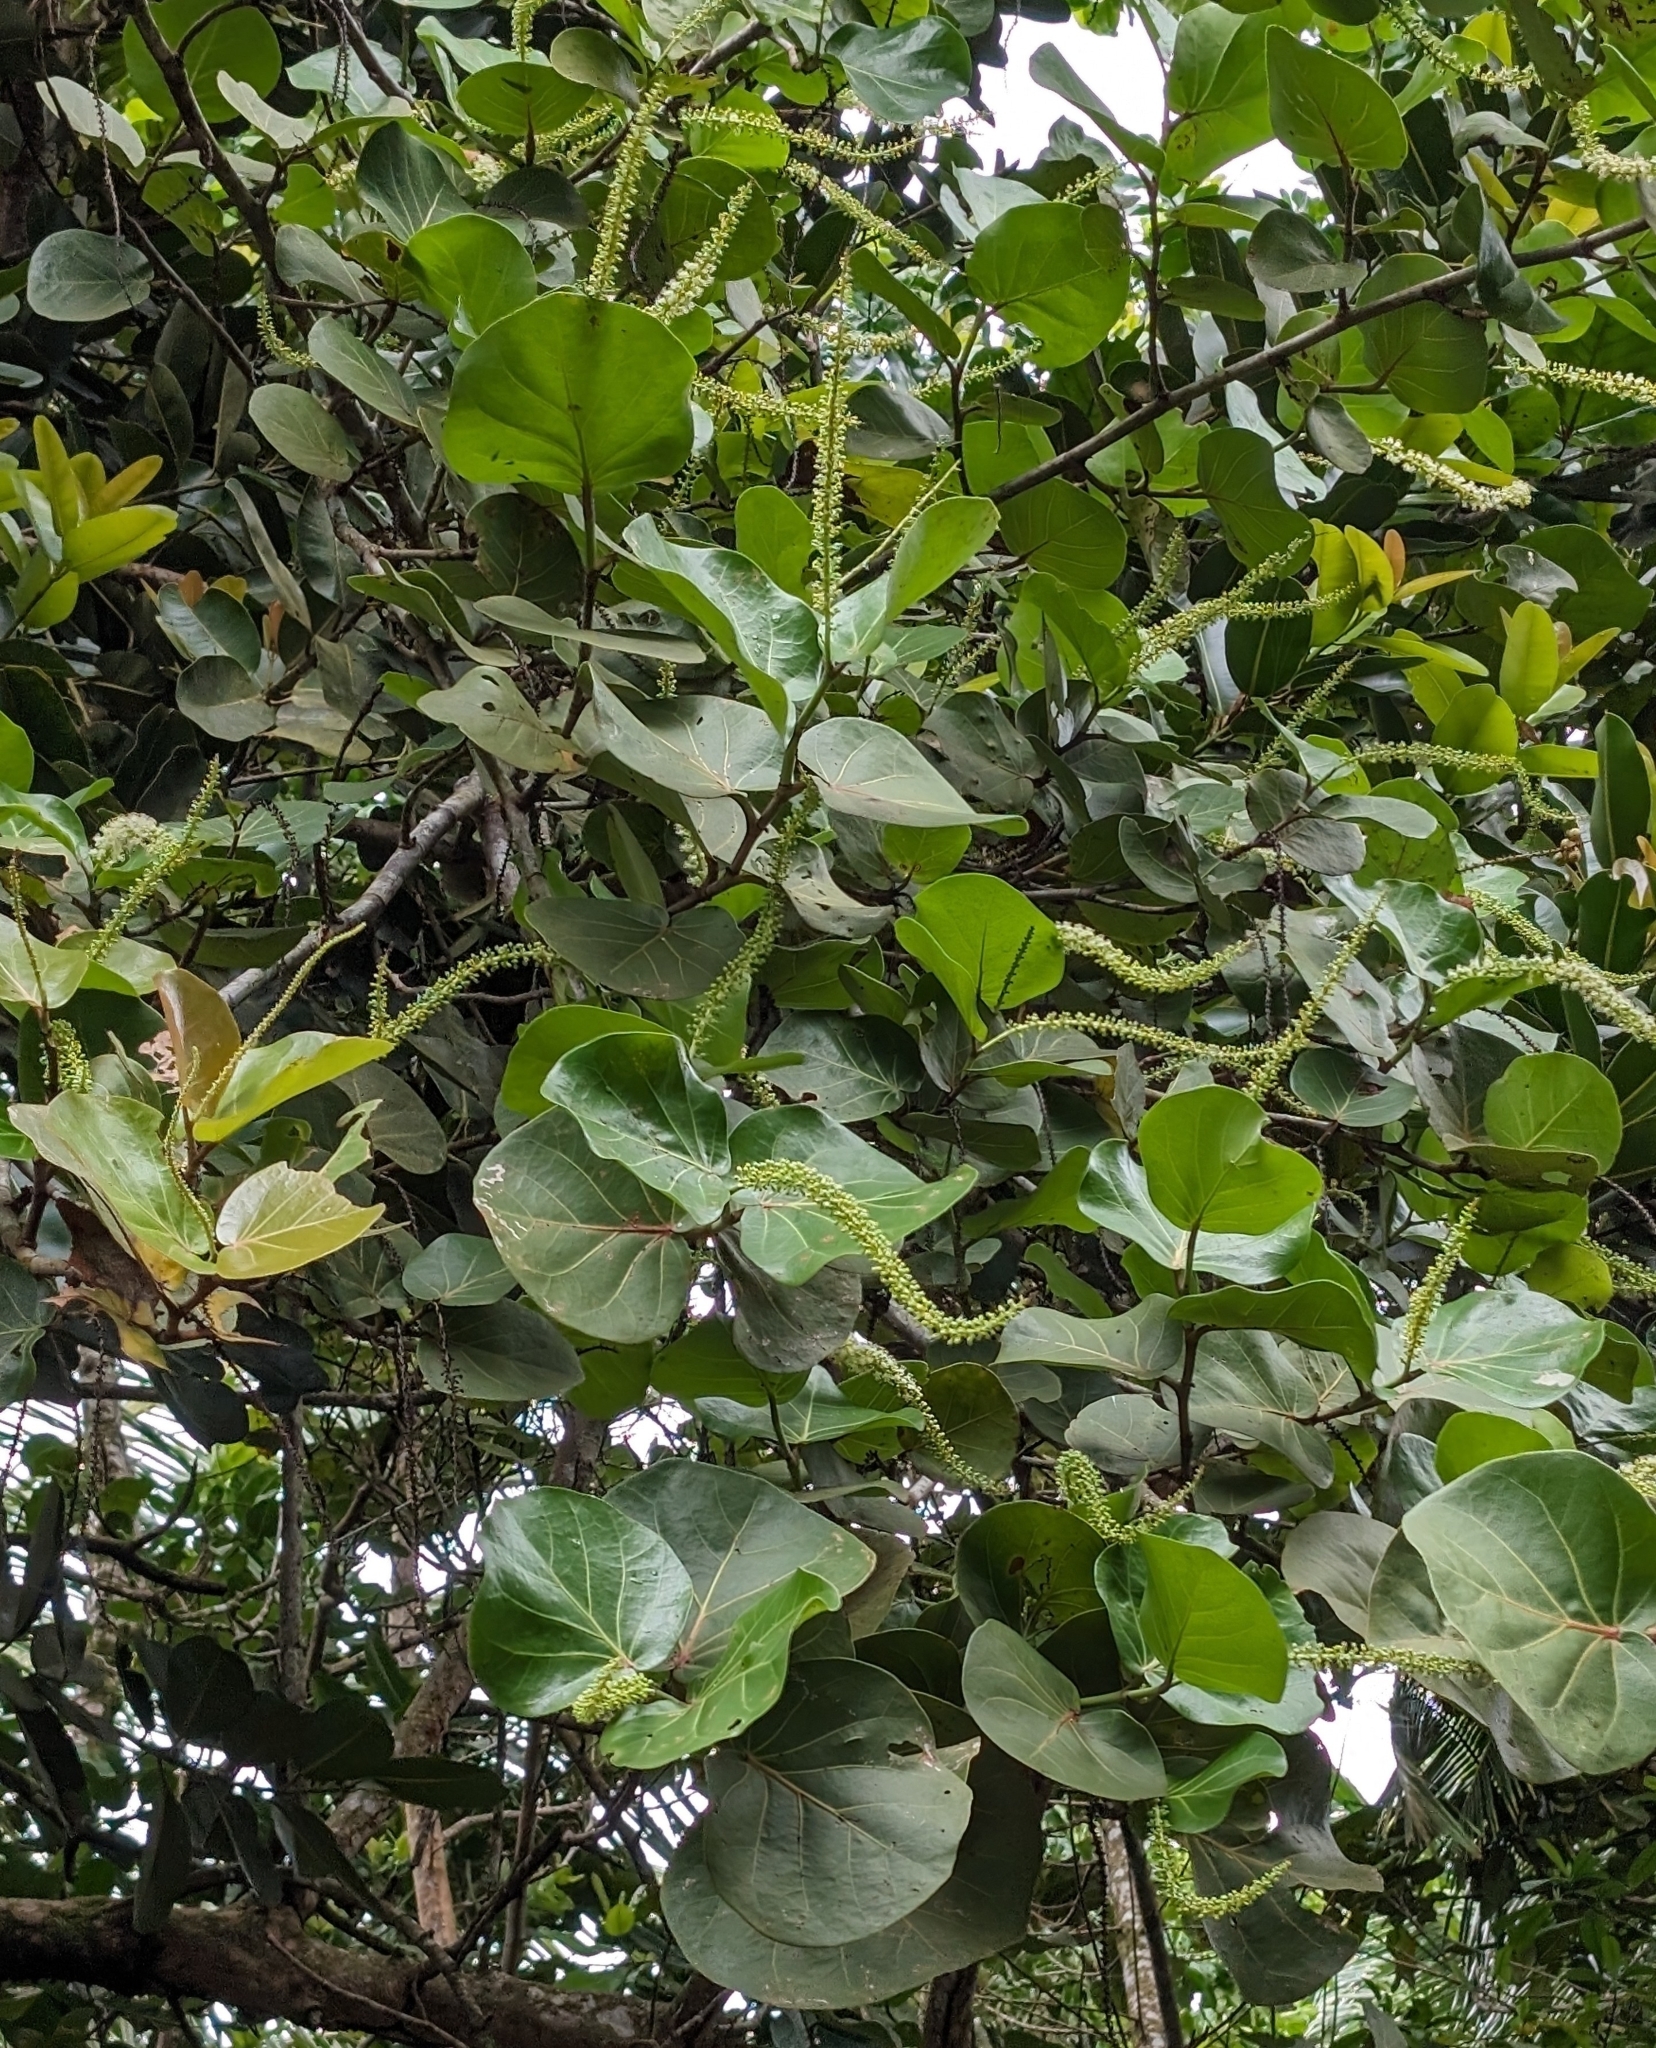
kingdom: Plantae
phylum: Tracheophyta
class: Magnoliopsida
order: Caryophyllales
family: Polygonaceae
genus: Coccoloba
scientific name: Coccoloba uvifera
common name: Seagrape
